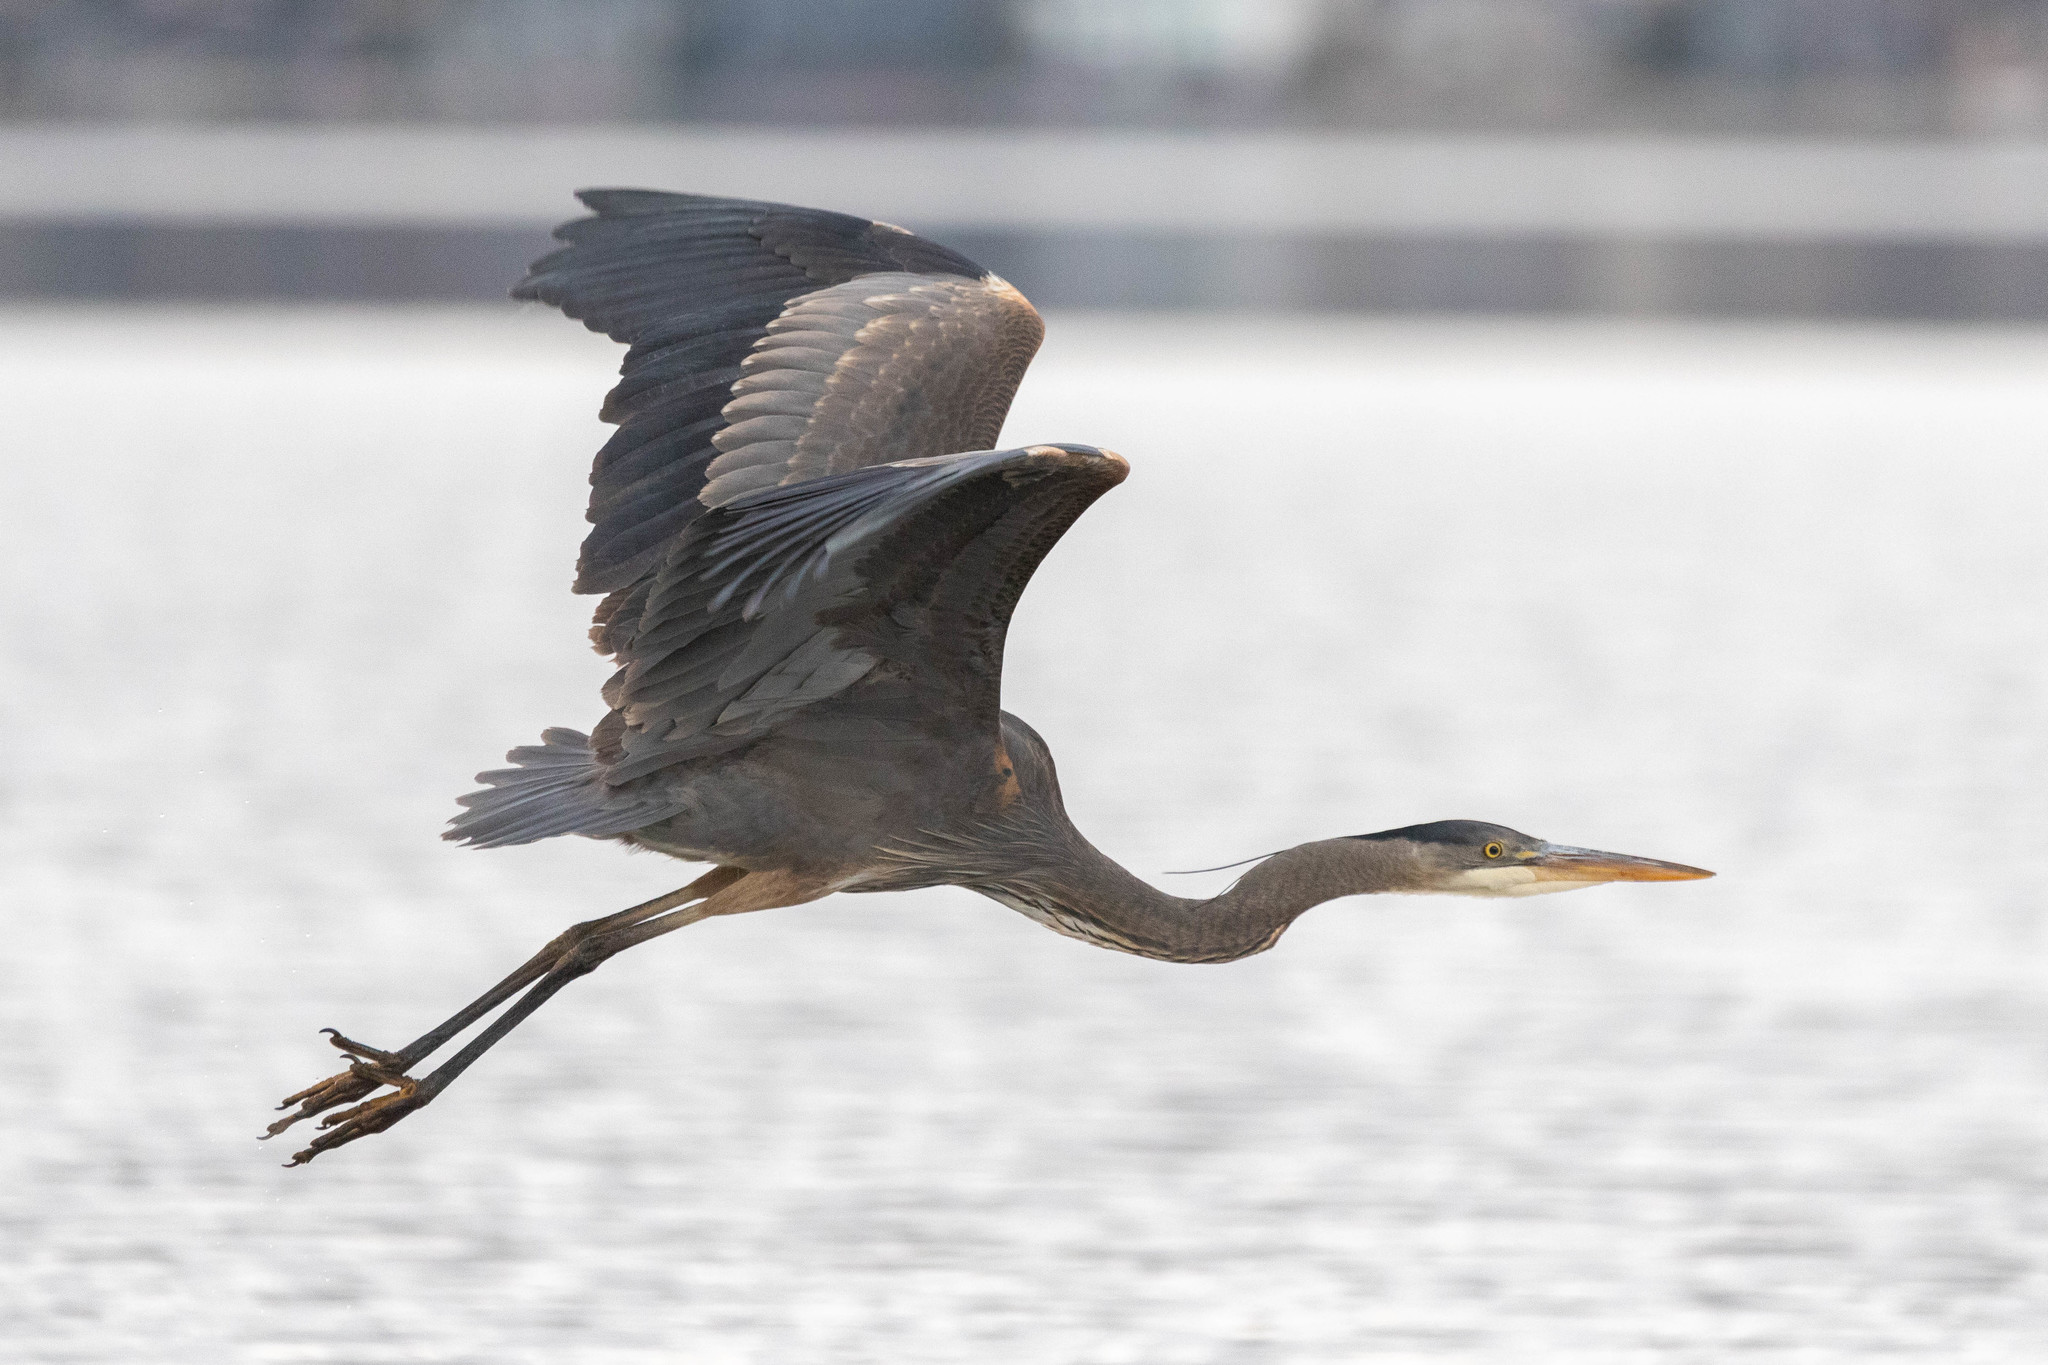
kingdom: Animalia
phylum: Chordata
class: Aves
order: Pelecaniformes
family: Ardeidae
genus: Ardea
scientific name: Ardea herodias
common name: Great blue heron
